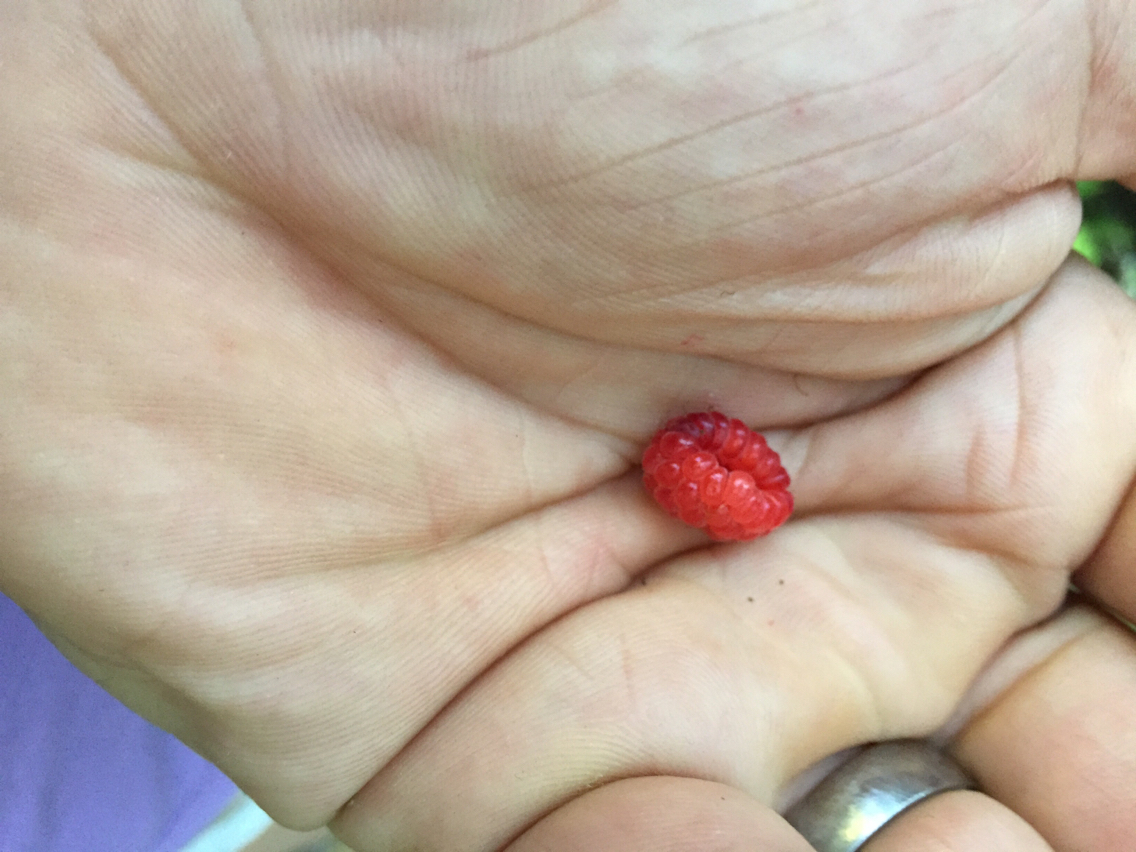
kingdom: Plantae
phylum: Tracheophyta
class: Magnoliopsida
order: Rosales
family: Rosaceae
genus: Rubus
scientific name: Rubus idaeus
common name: Raspberry
